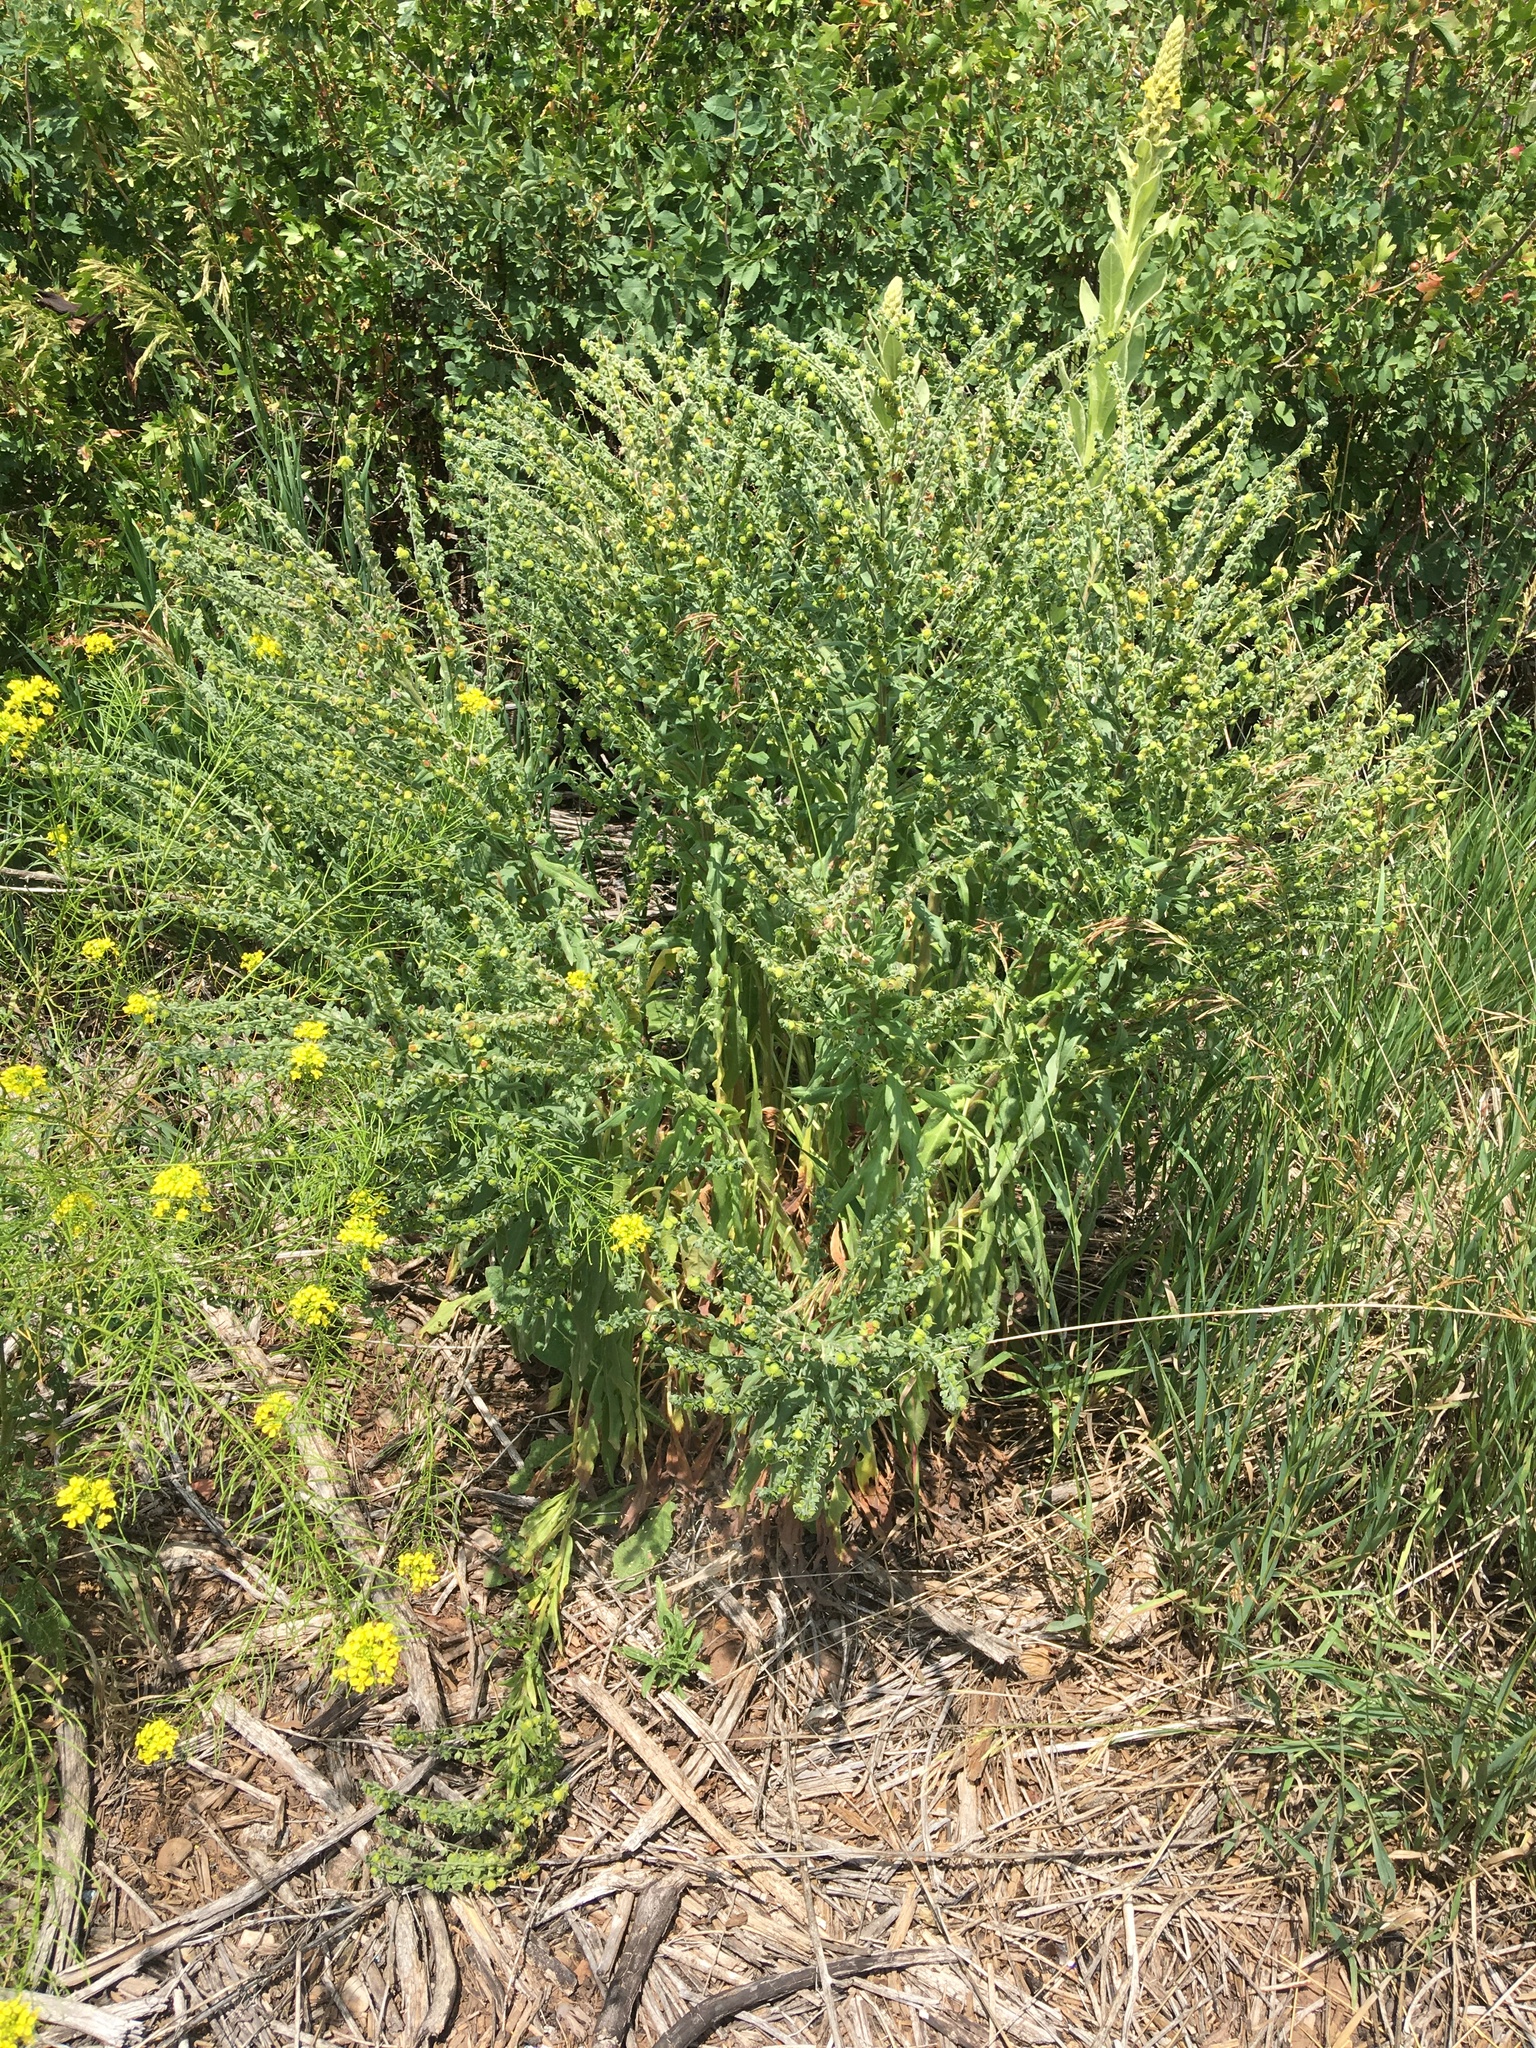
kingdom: Plantae
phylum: Tracheophyta
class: Magnoliopsida
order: Boraginales
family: Boraginaceae
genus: Cynoglossum
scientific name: Cynoglossum officinale
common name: Hound's-tongue
